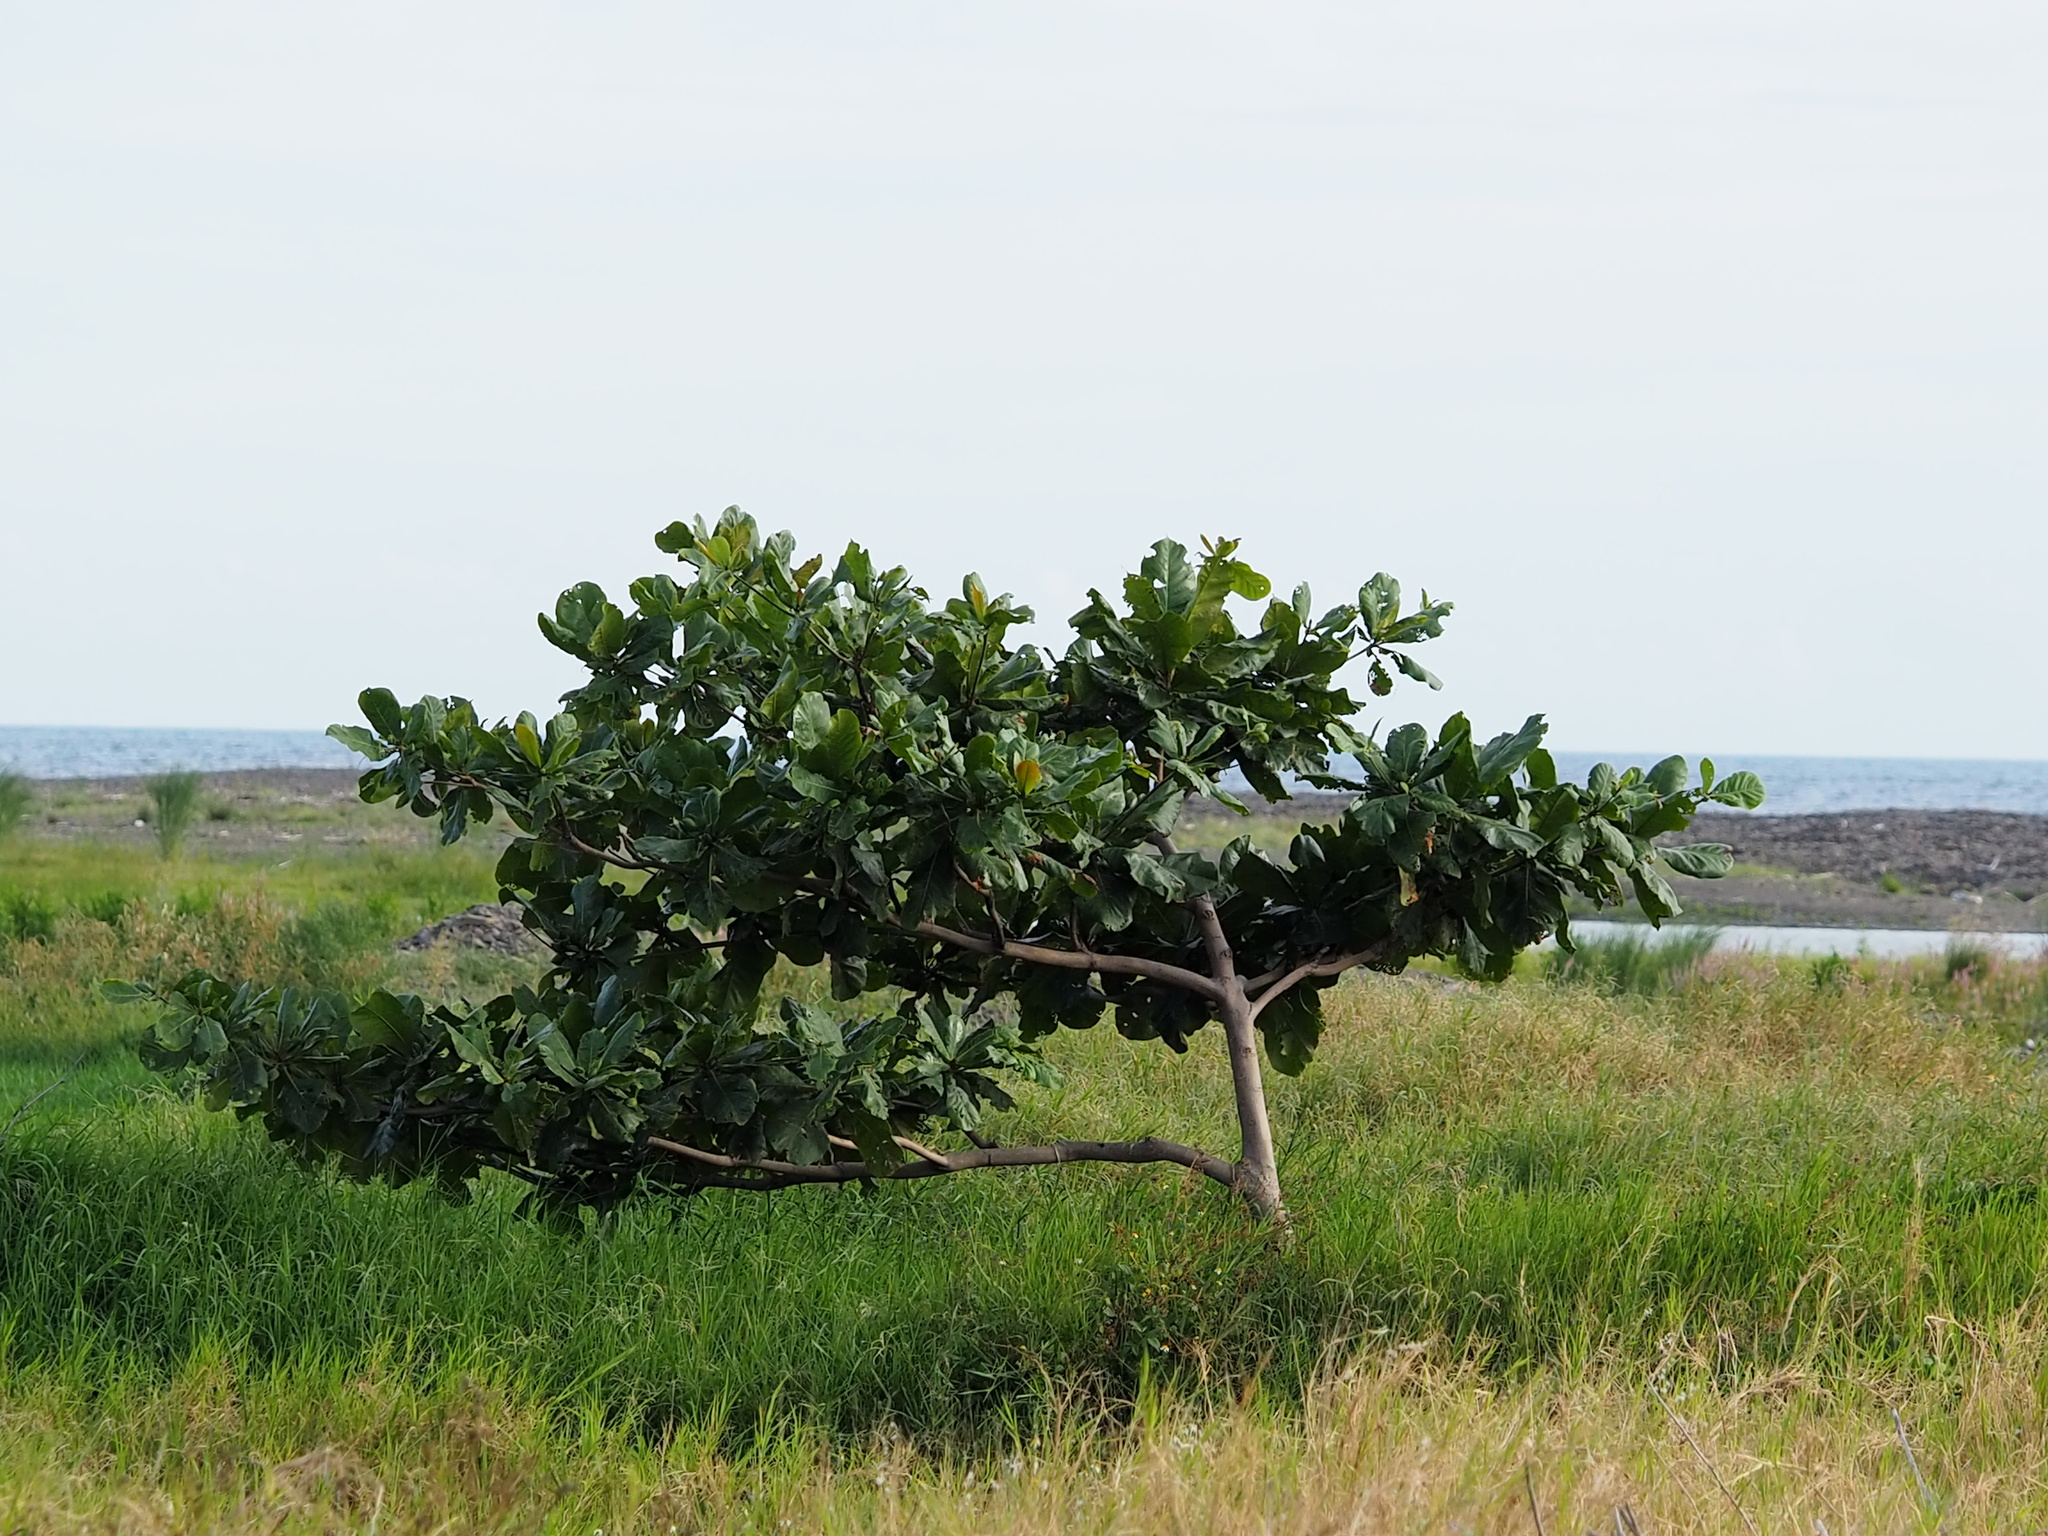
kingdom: Plantae
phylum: Tracheophyta
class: Magnoliopsida
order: Myrtales
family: Combretaceae
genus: Terminalia
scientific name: Terminalia catappa
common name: Tropical almond
